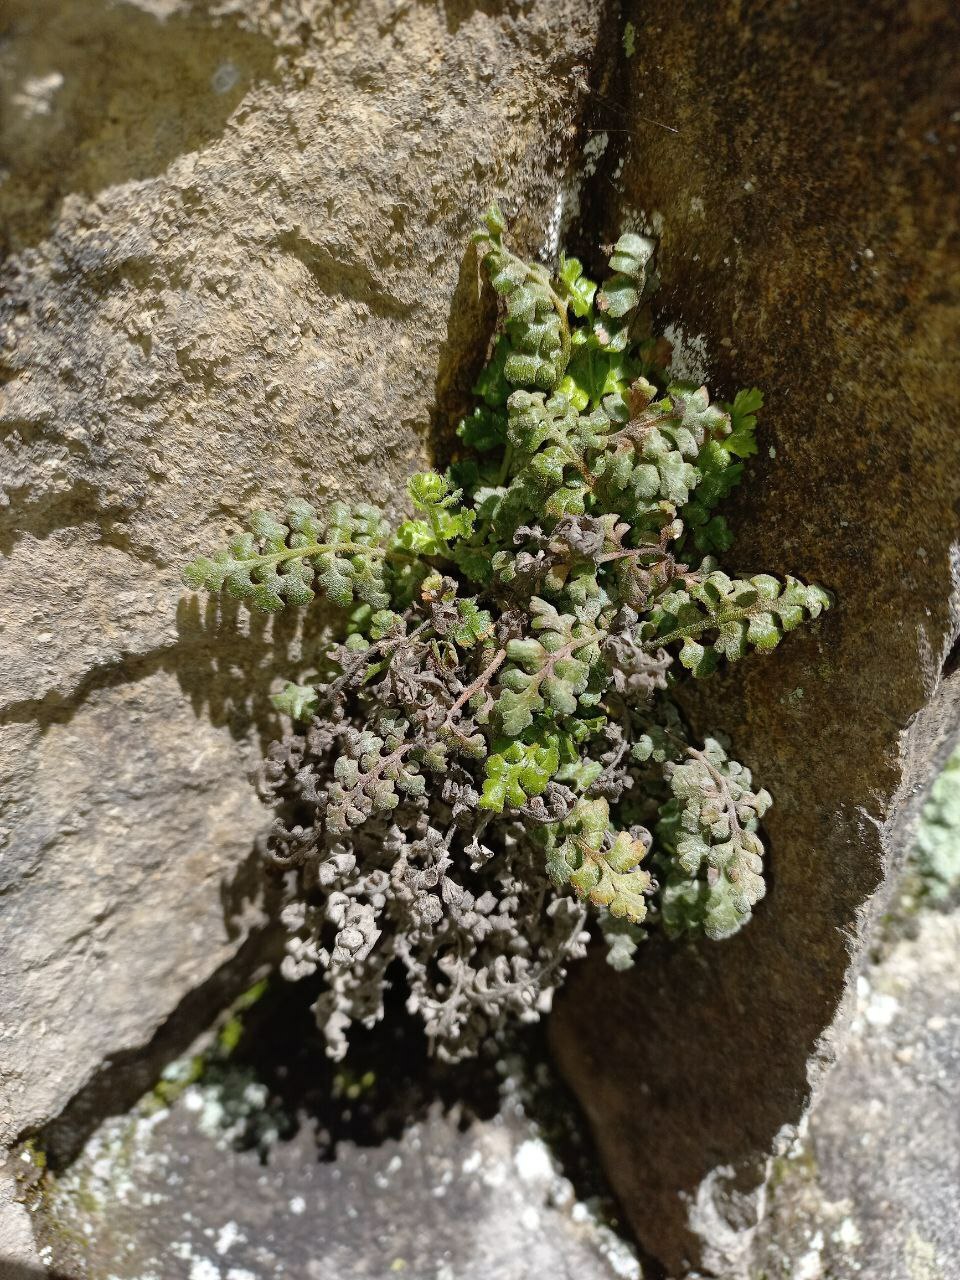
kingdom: Plantae
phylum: Tracheophyta
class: Polypodiopsida
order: Polypodiales
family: Aspleniaceae
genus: Asplenium
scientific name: Asplenium dareoides
